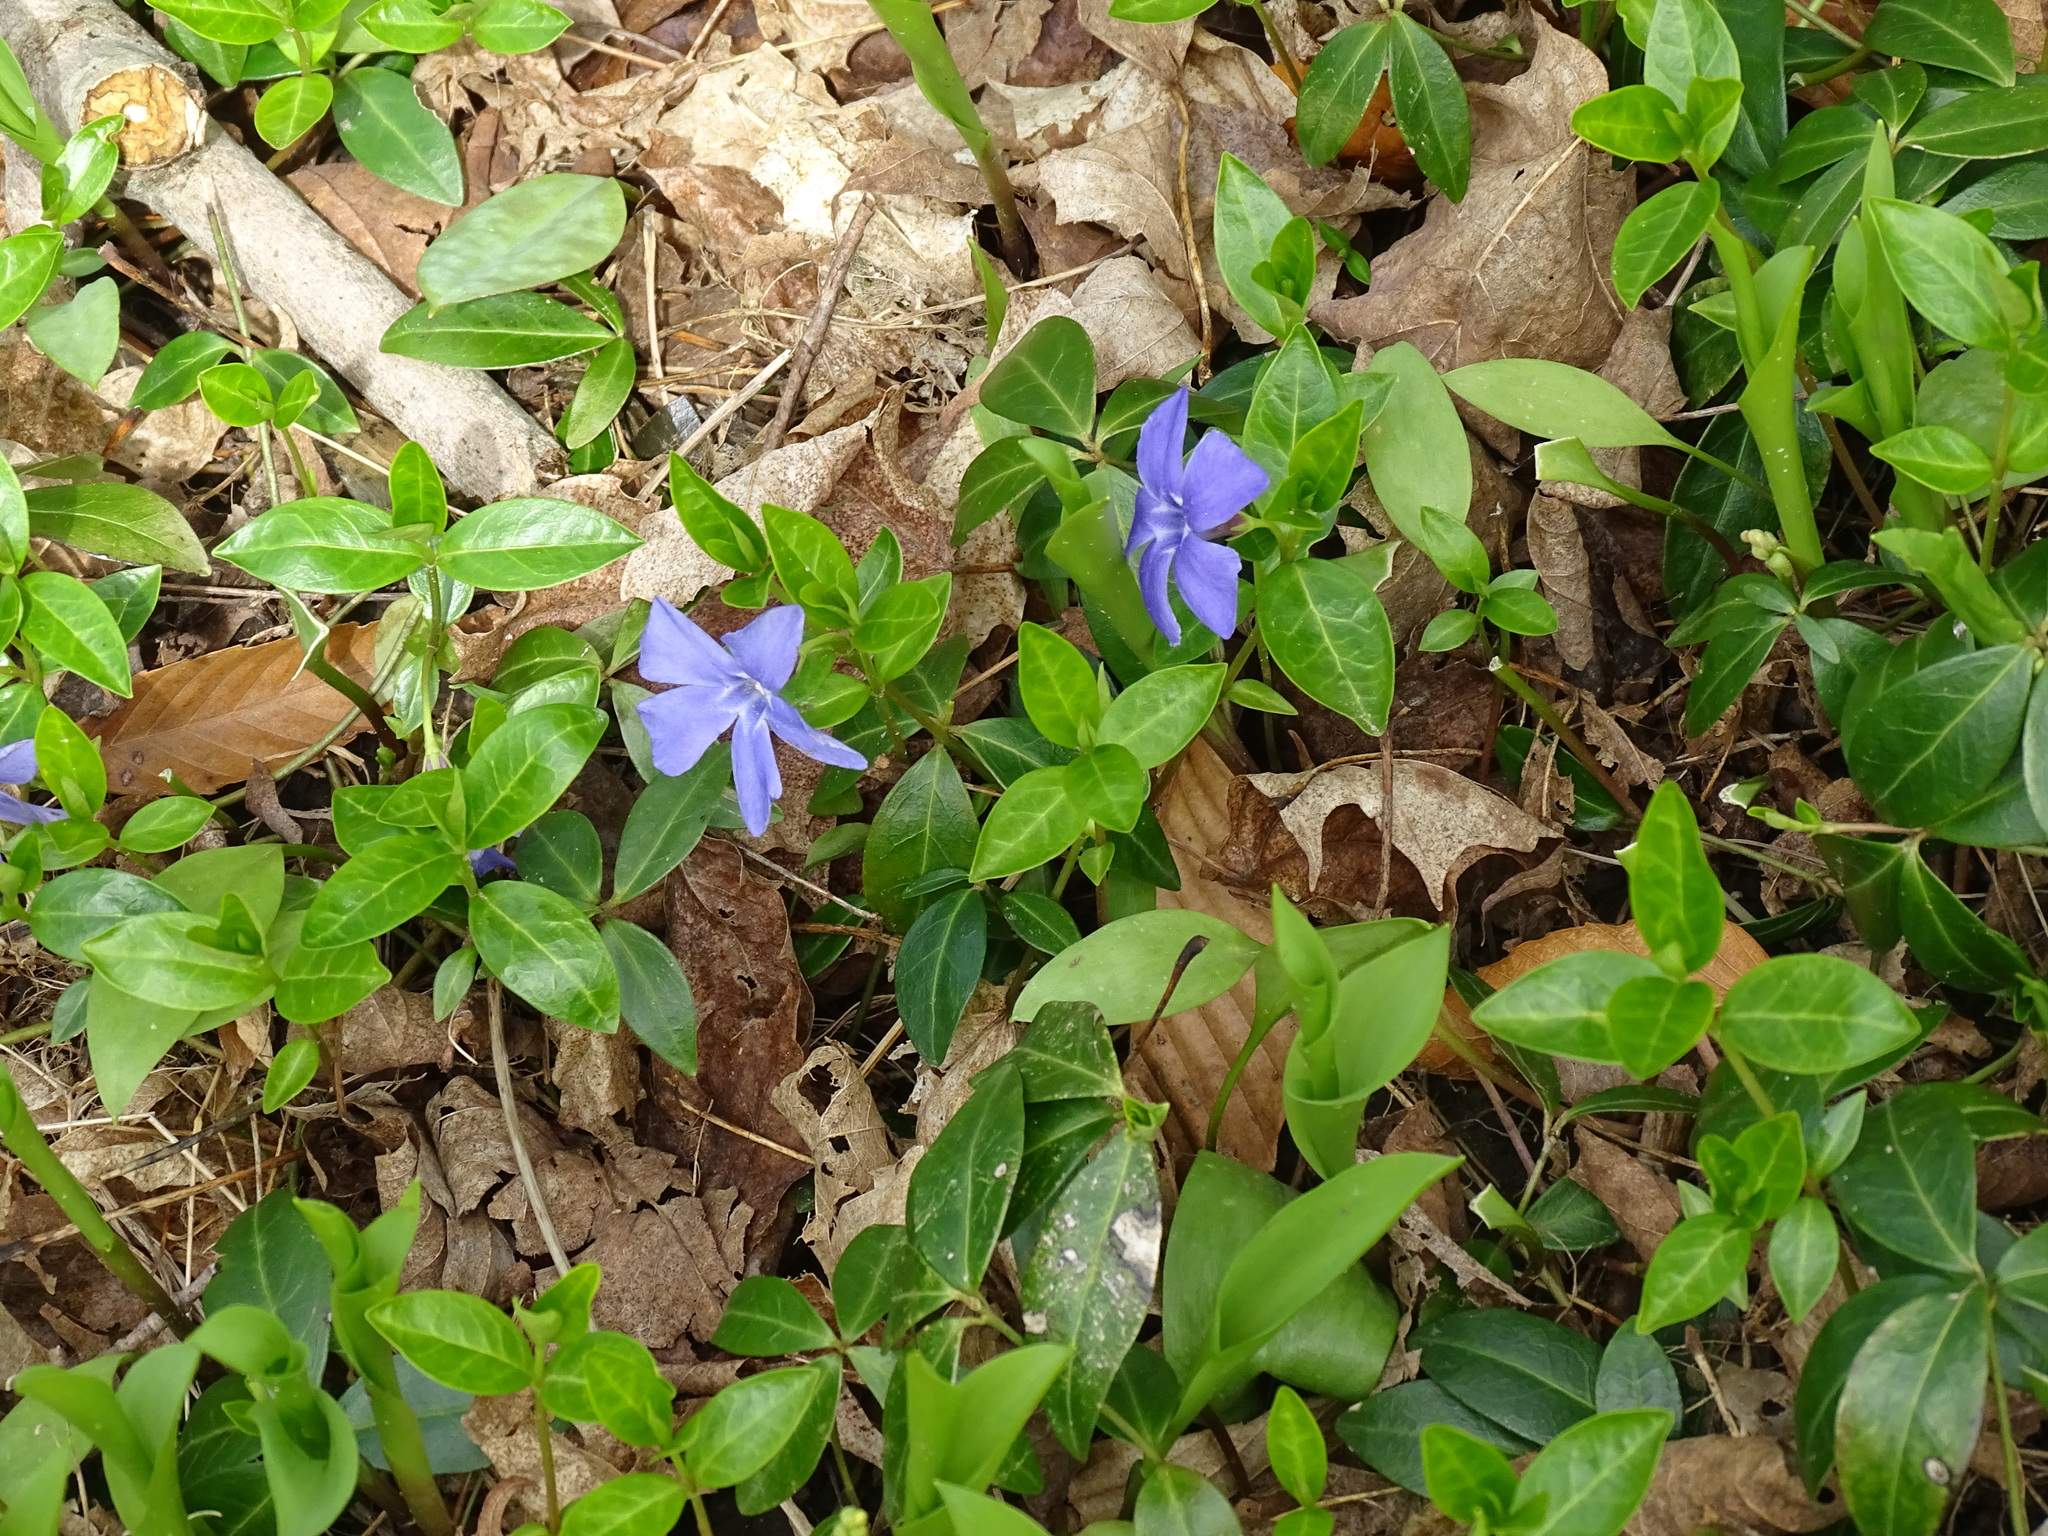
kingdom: Plantae
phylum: Tracheophyta
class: Magnoliopsida
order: Gentianales
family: Apocynaceae
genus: Vinca
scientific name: Vinca minor
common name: Lesser periwinkle
